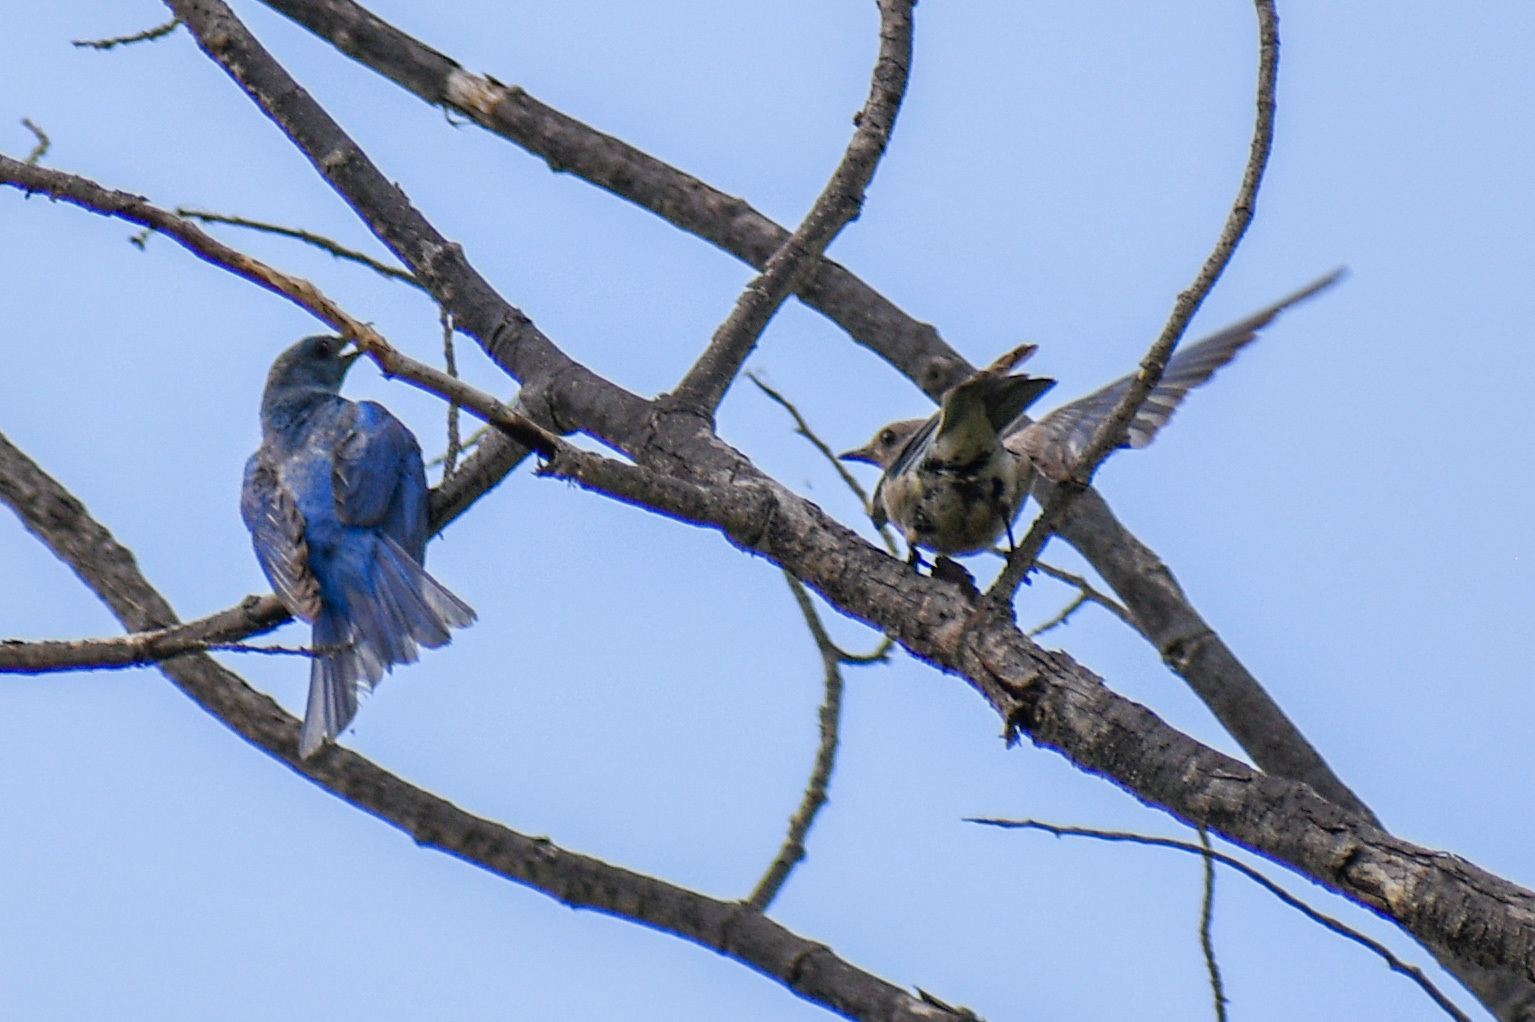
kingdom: Animalia
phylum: Chordata
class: Aves
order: Passeriformes
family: Turdidae
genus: Sialia
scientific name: Sialia currucoides
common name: Mountain bluebird
